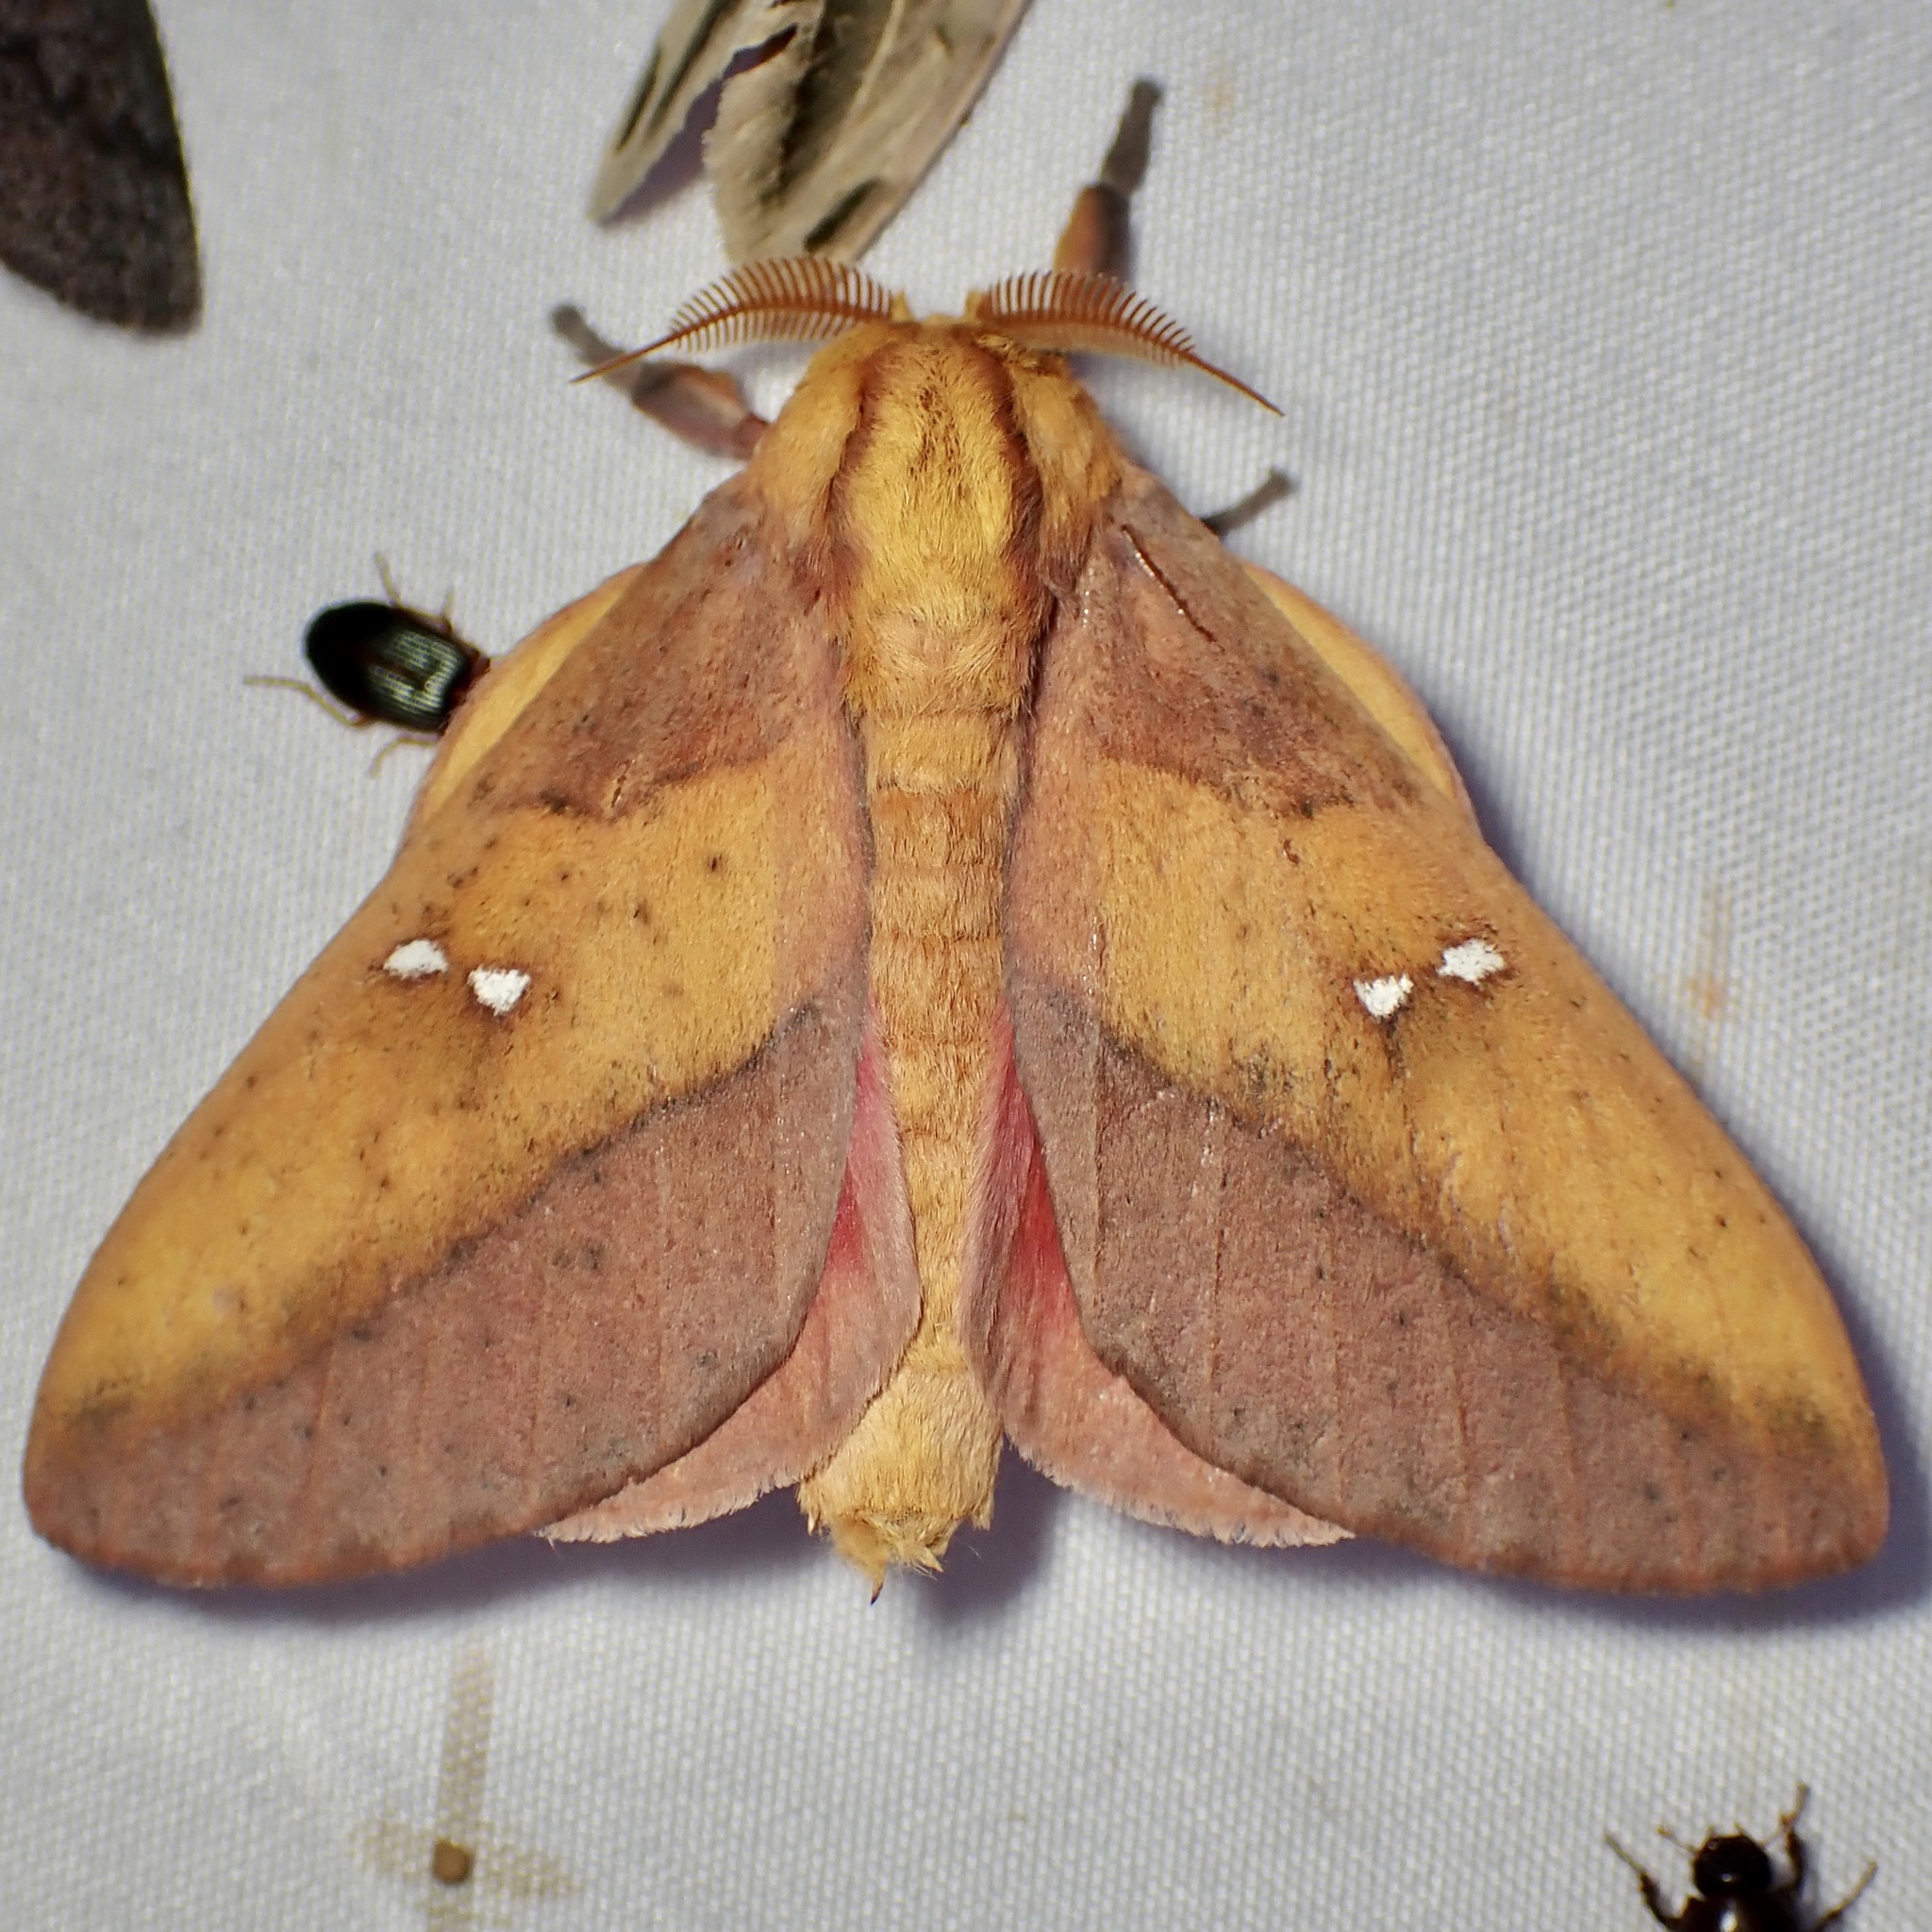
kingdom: Animalia
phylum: Arthropoda
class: Insecta
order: Lepidoptera
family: Saturniidae
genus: Syssphinx
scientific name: Syssphinx montana
